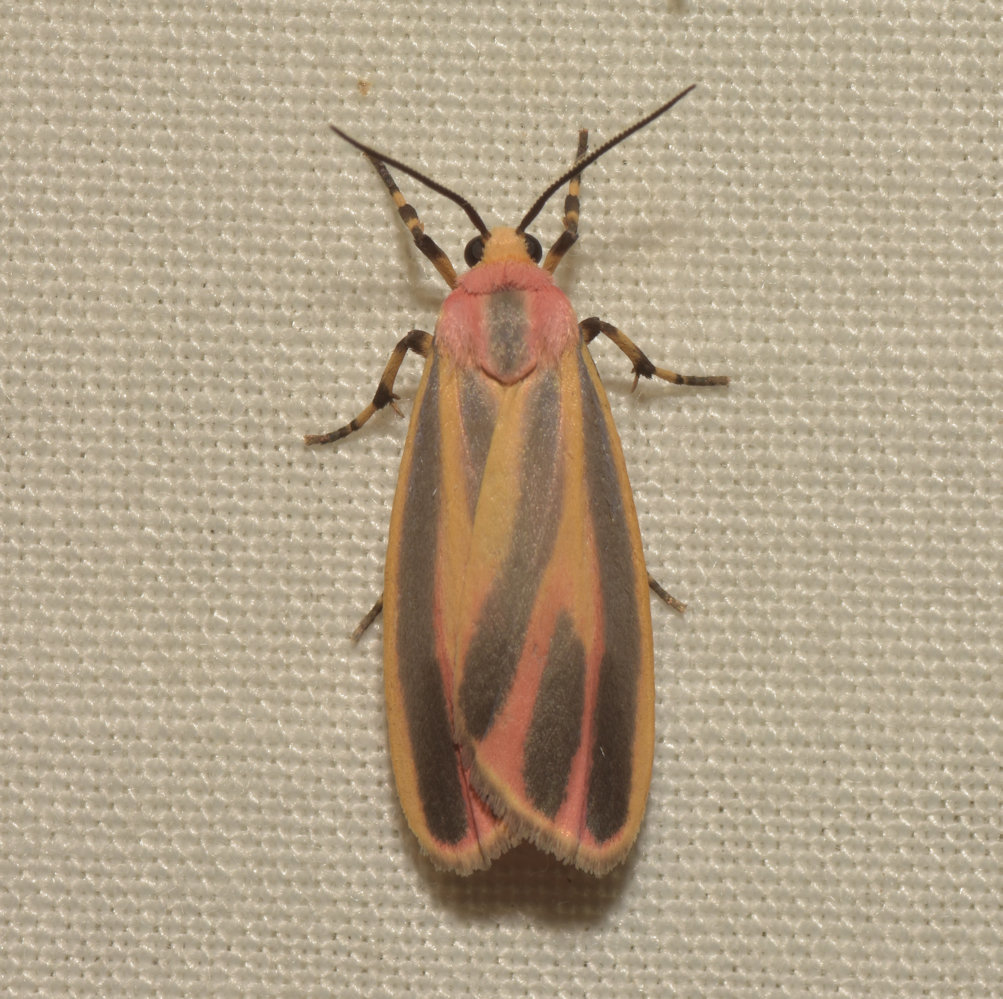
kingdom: Animalia
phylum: Arthropoda
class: Insecta
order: Lepidoptera
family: Erebidae
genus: Hypoprepia
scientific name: Hypoprepia fucosa
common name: Painted lichen moth
